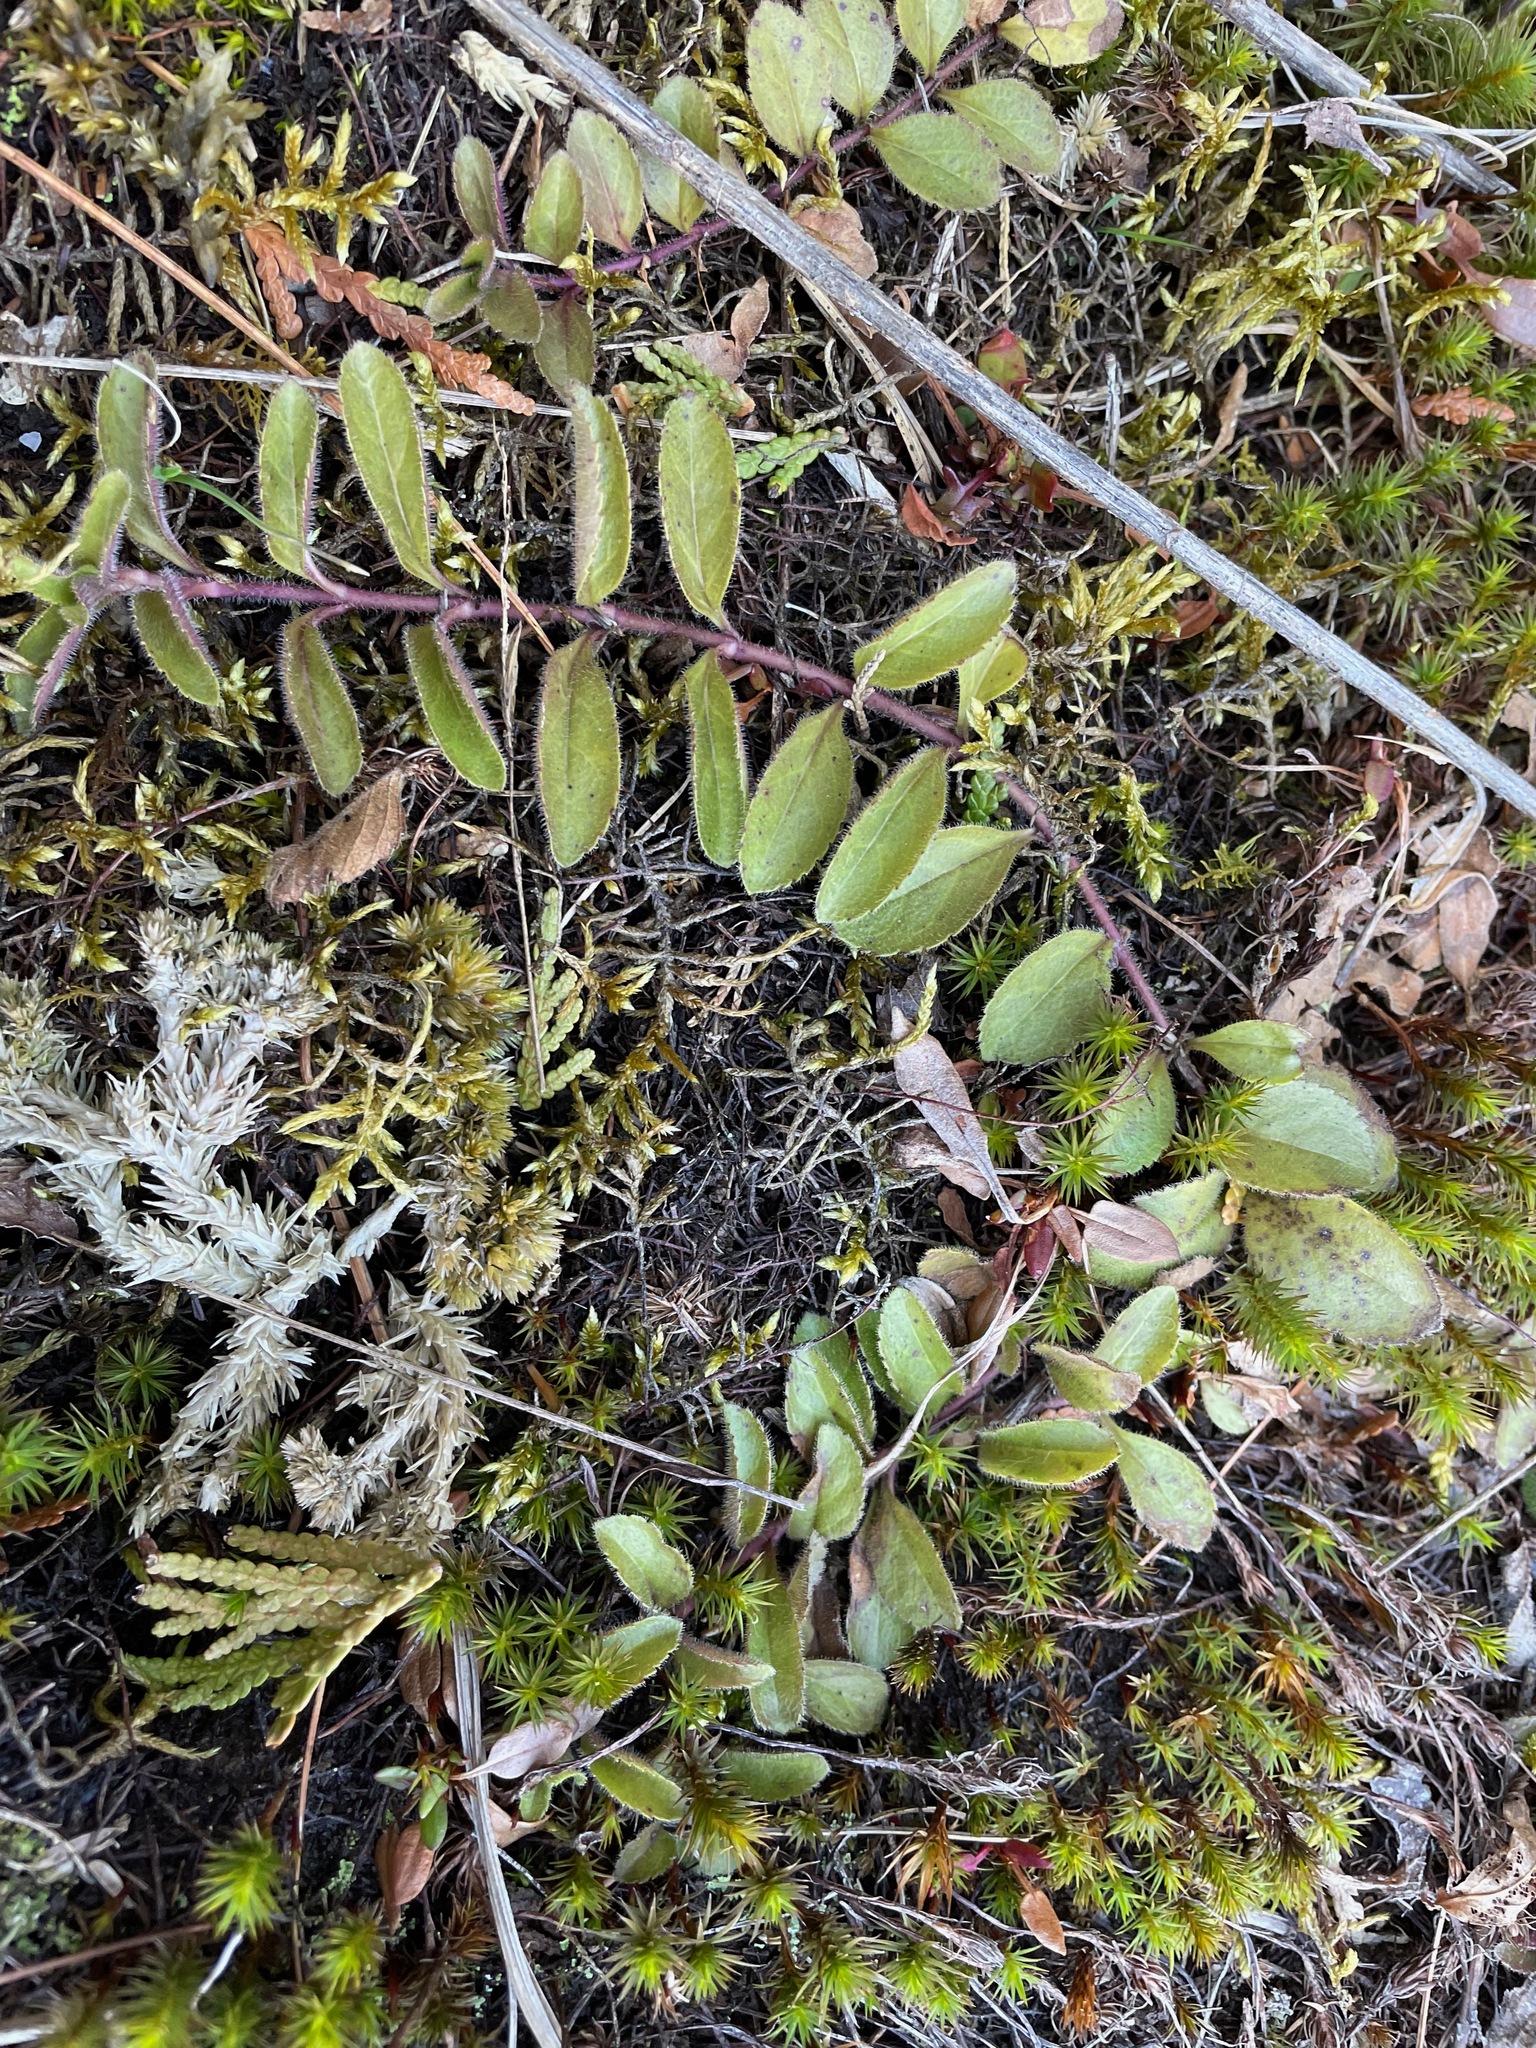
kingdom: Plantae
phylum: Tracheophyta
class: Magnoliopsida
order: Lamiales
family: Plantaginaceae
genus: Veronica
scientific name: Veronica officinalis
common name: Common speedwell
